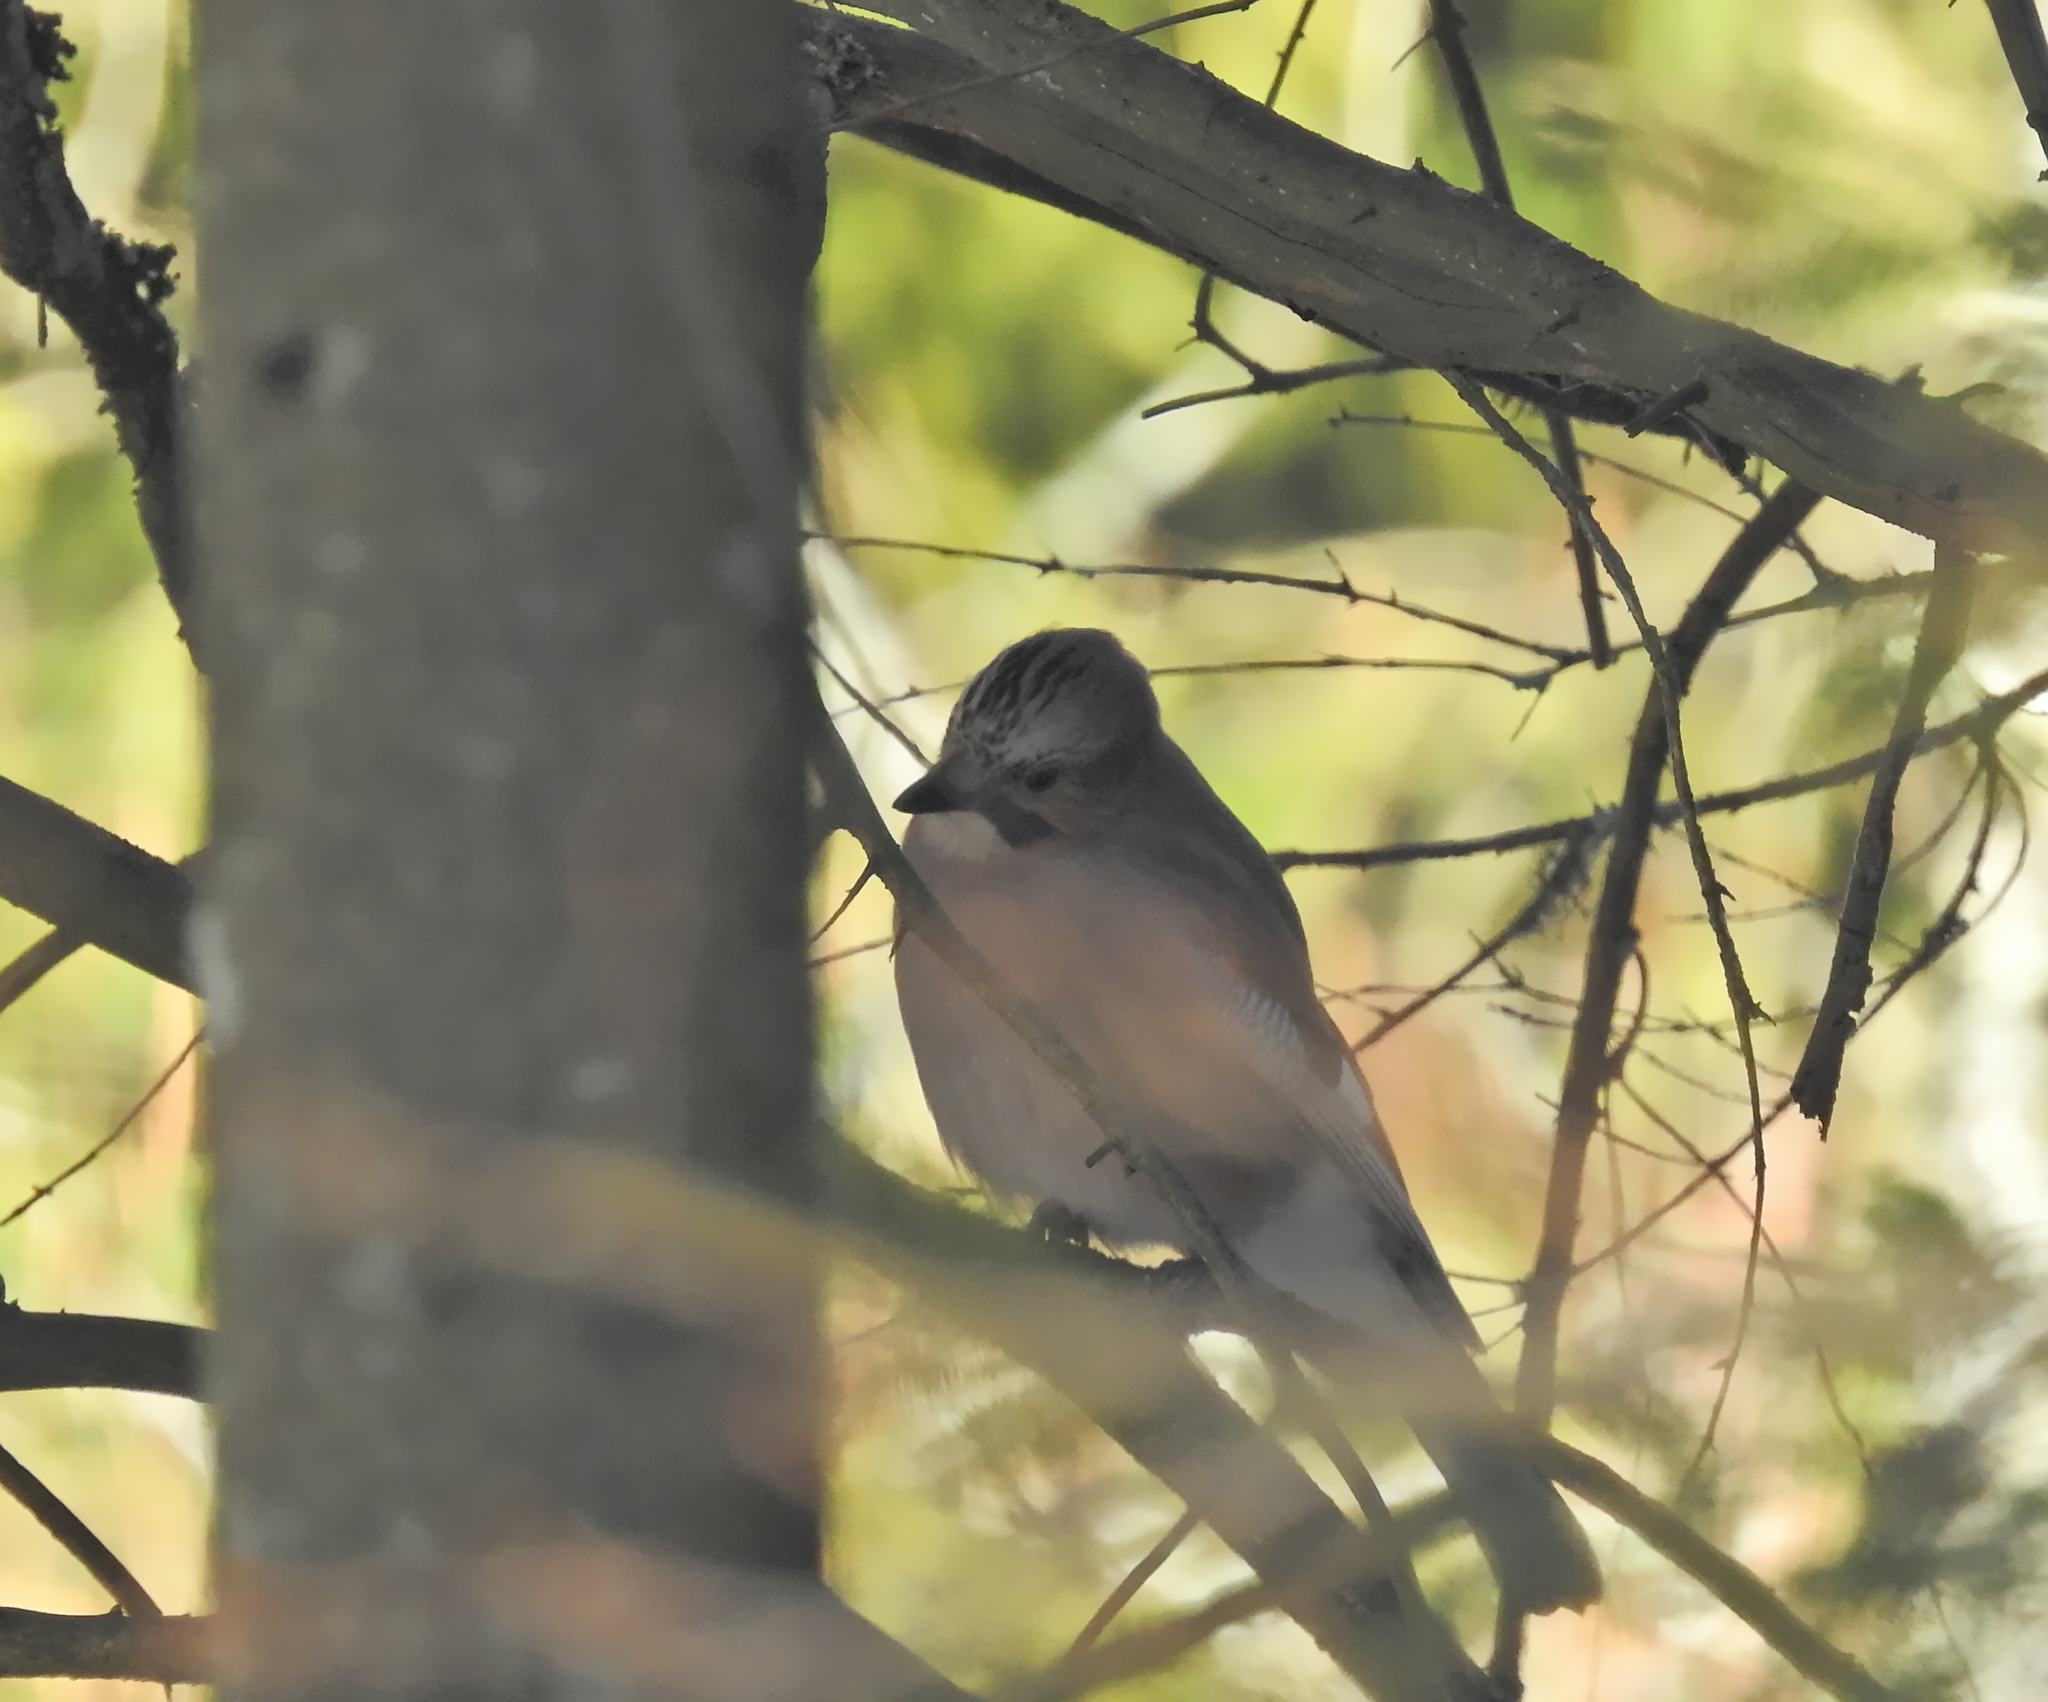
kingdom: Animalia
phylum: Chordata
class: Aves
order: Passeriformes
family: Corvidae
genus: Garrulus
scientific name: Garrulus glandarius
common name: Eurasian jay
